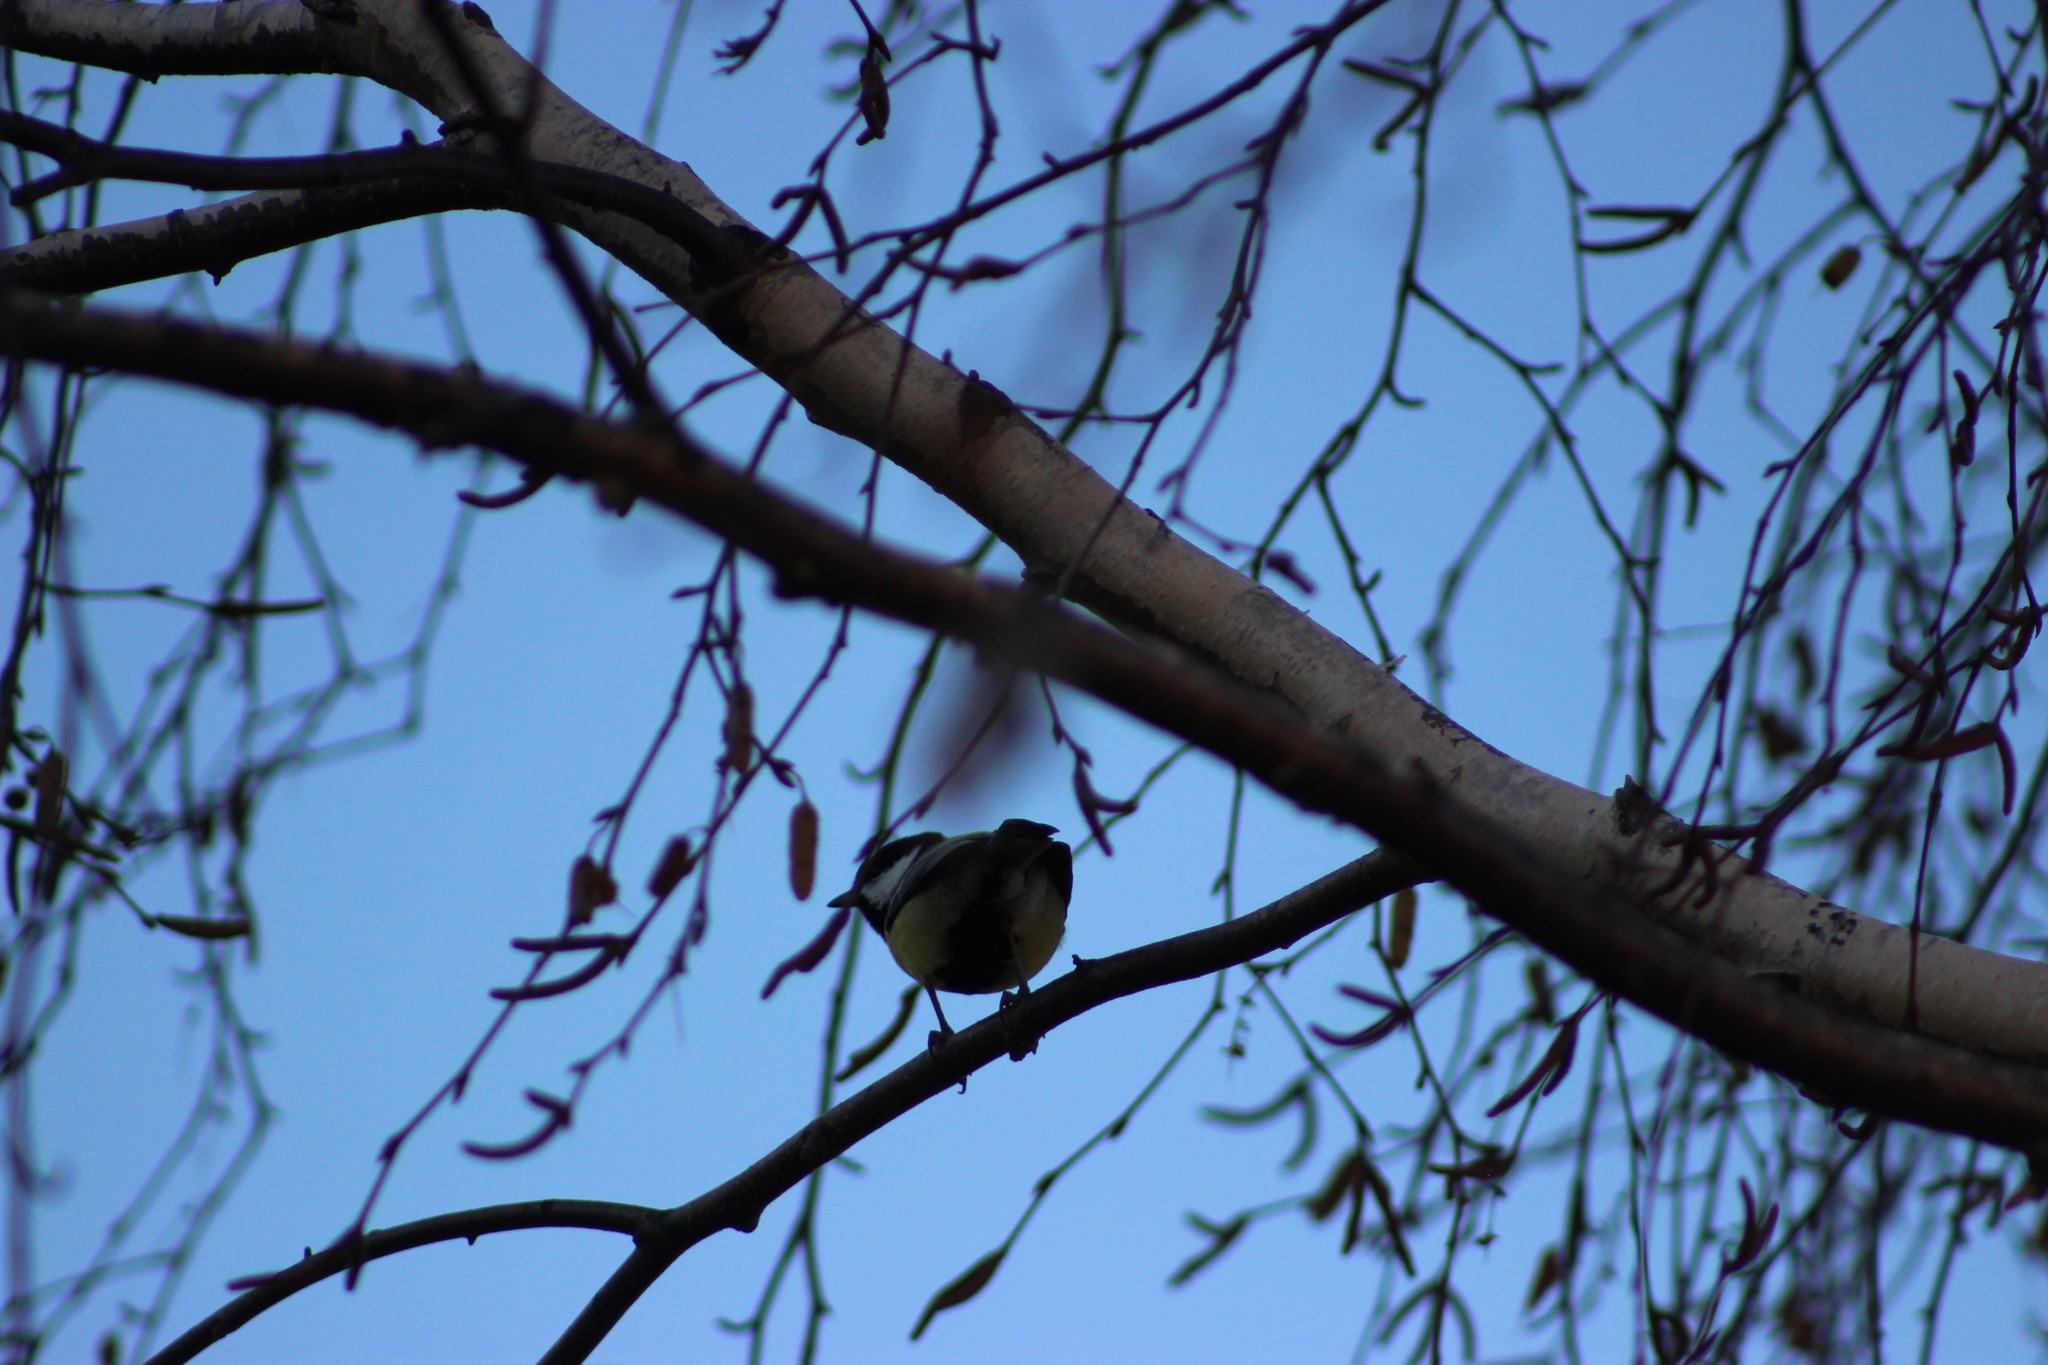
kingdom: Animalia
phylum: Chordata
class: Aves
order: Passeriformes
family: Paridae
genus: Parus
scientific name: Parus major
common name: Great tit
